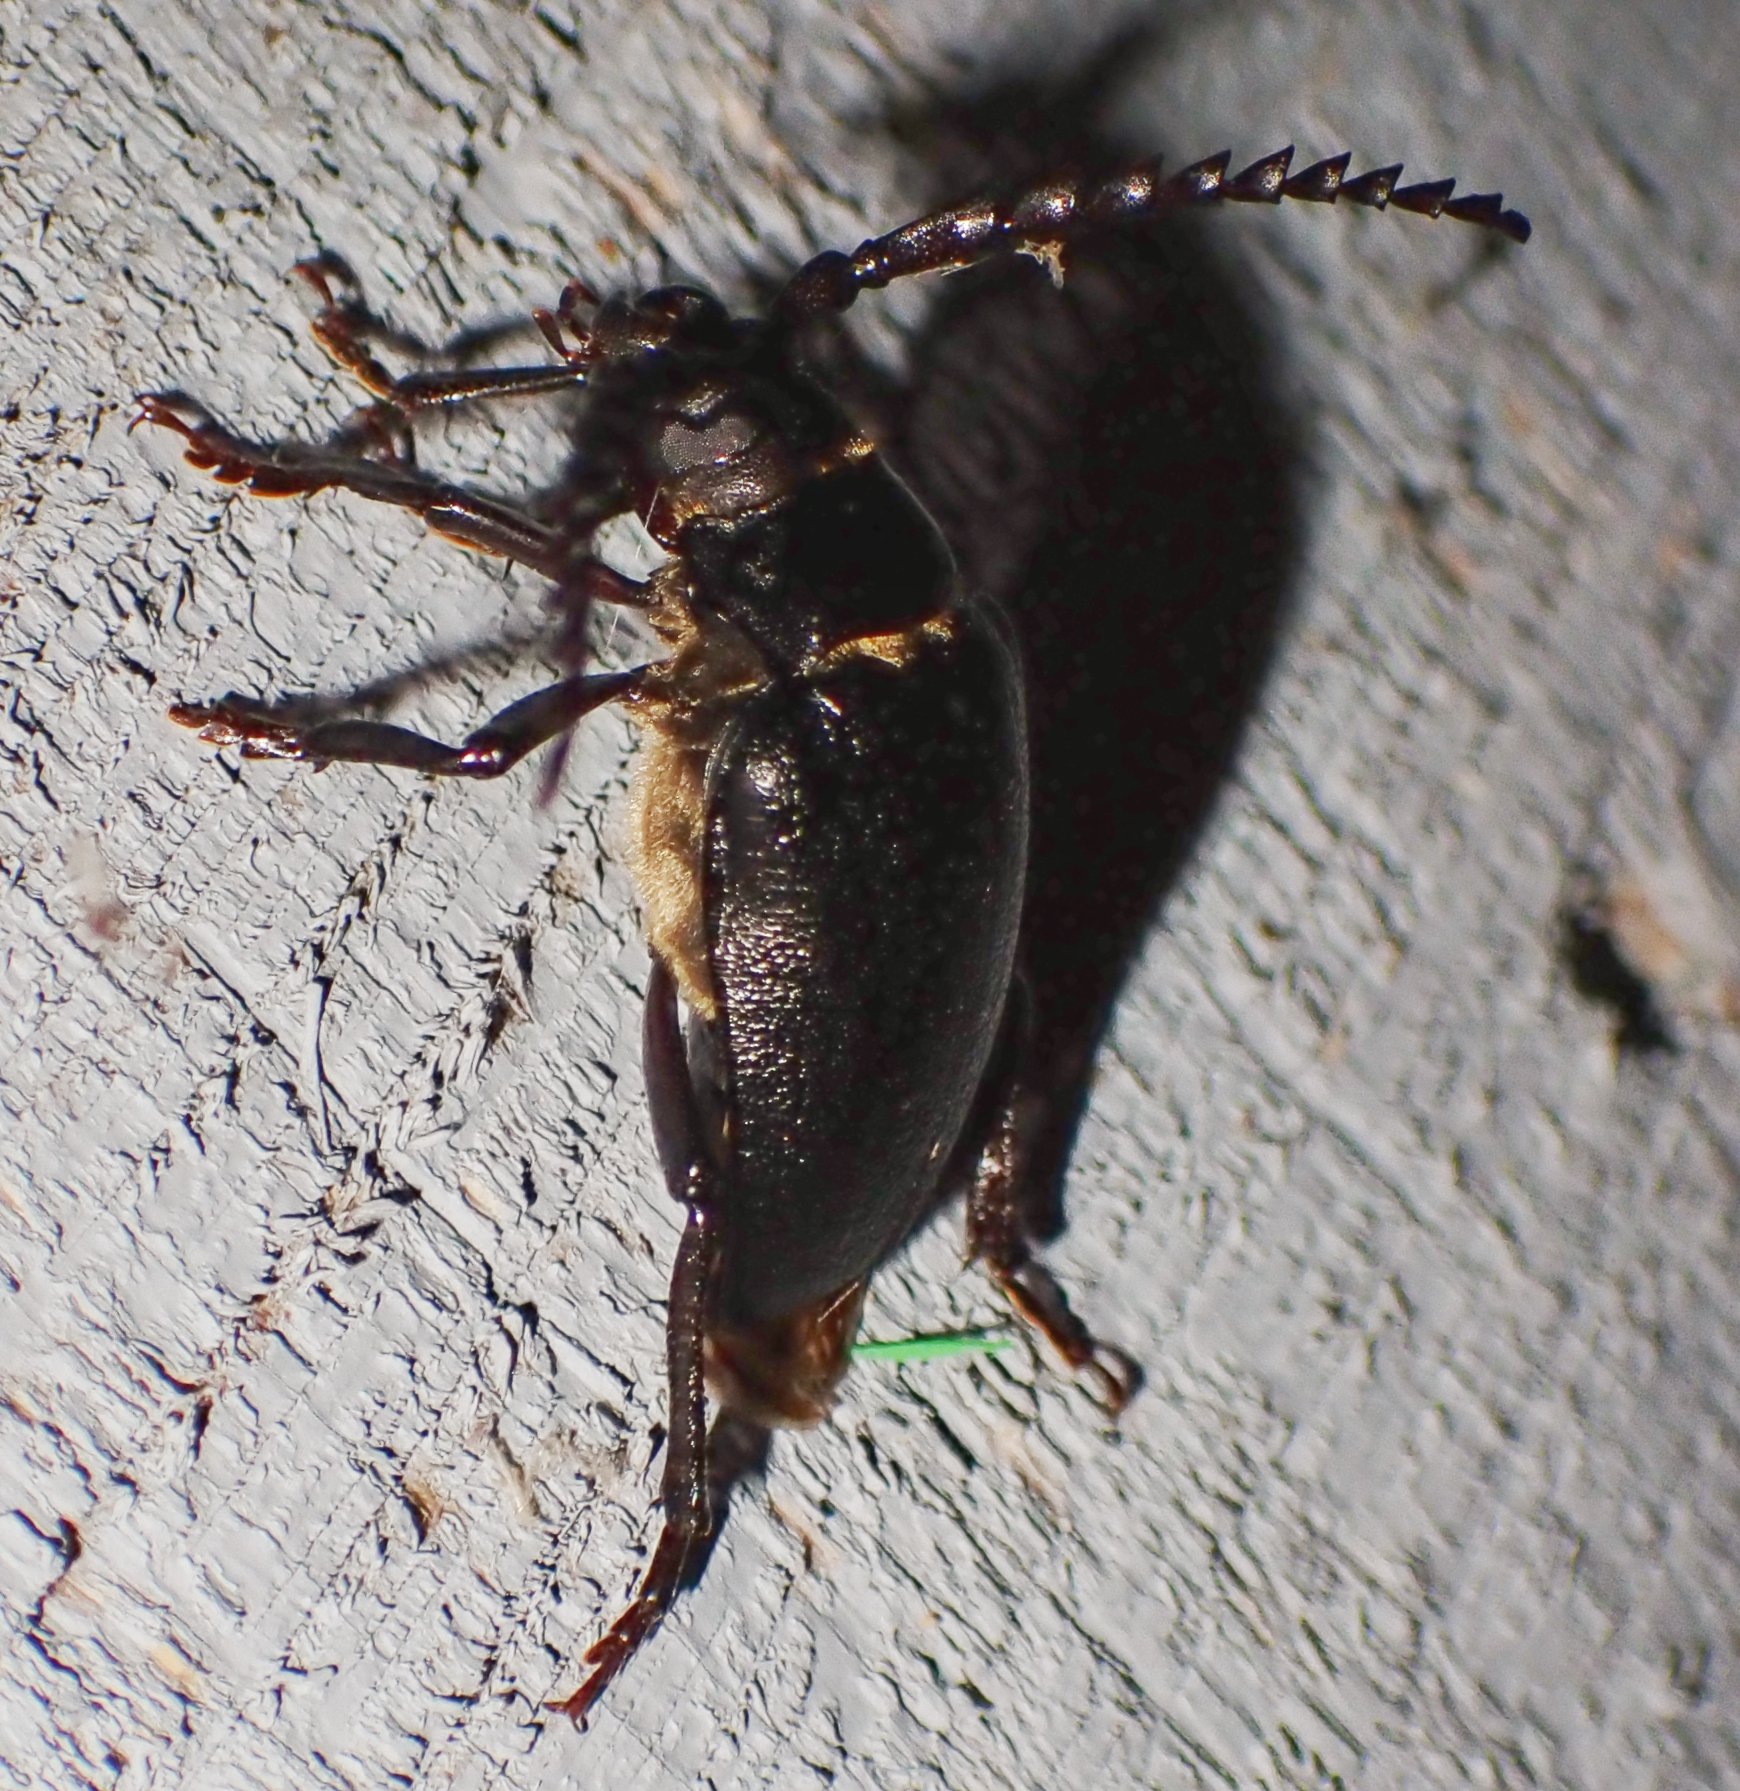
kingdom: Animalia
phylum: Arthropoda
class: Insecta
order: Coleoptera
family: Cerambycidae
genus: Prionus
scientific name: Prionus laticollis
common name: Broad necked prionus
